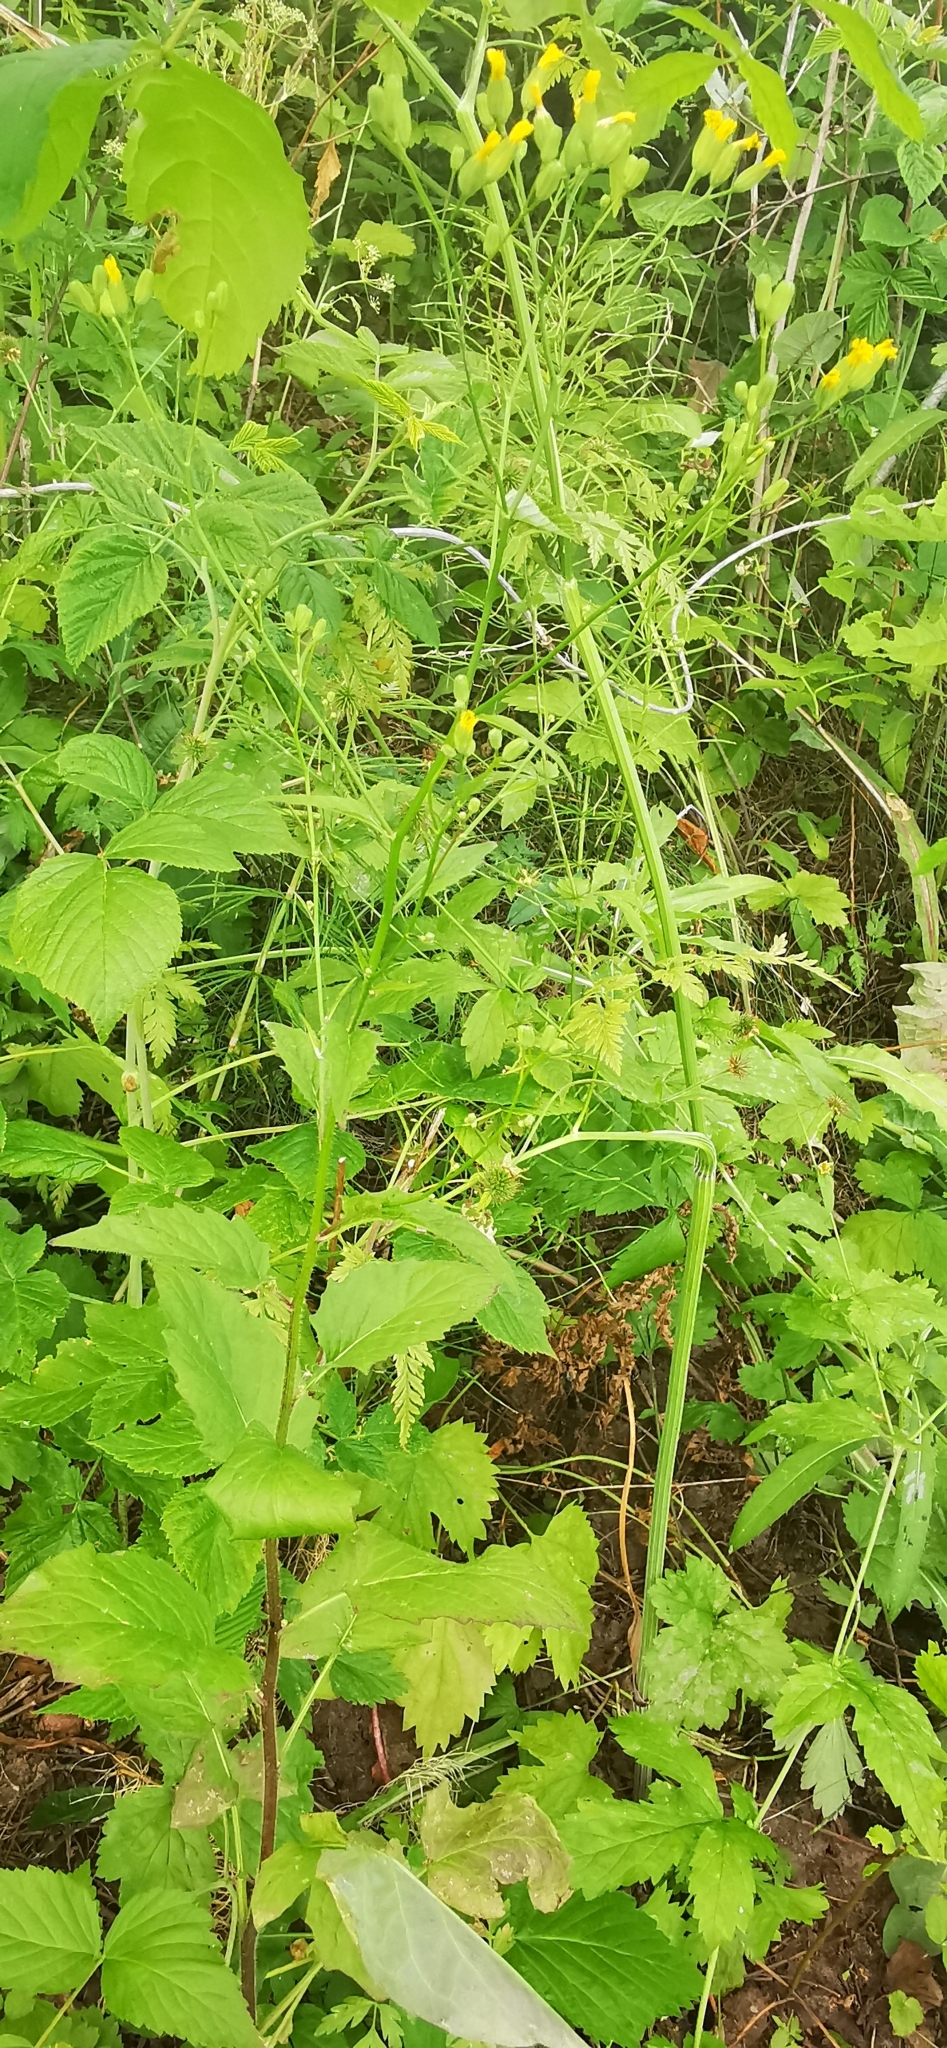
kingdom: Plantae
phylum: Tracheophyta
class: Magnoliopsida
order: Asterales
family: Asteraceae
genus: Lapsana
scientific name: Lapsana communis
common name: Nipplewort
